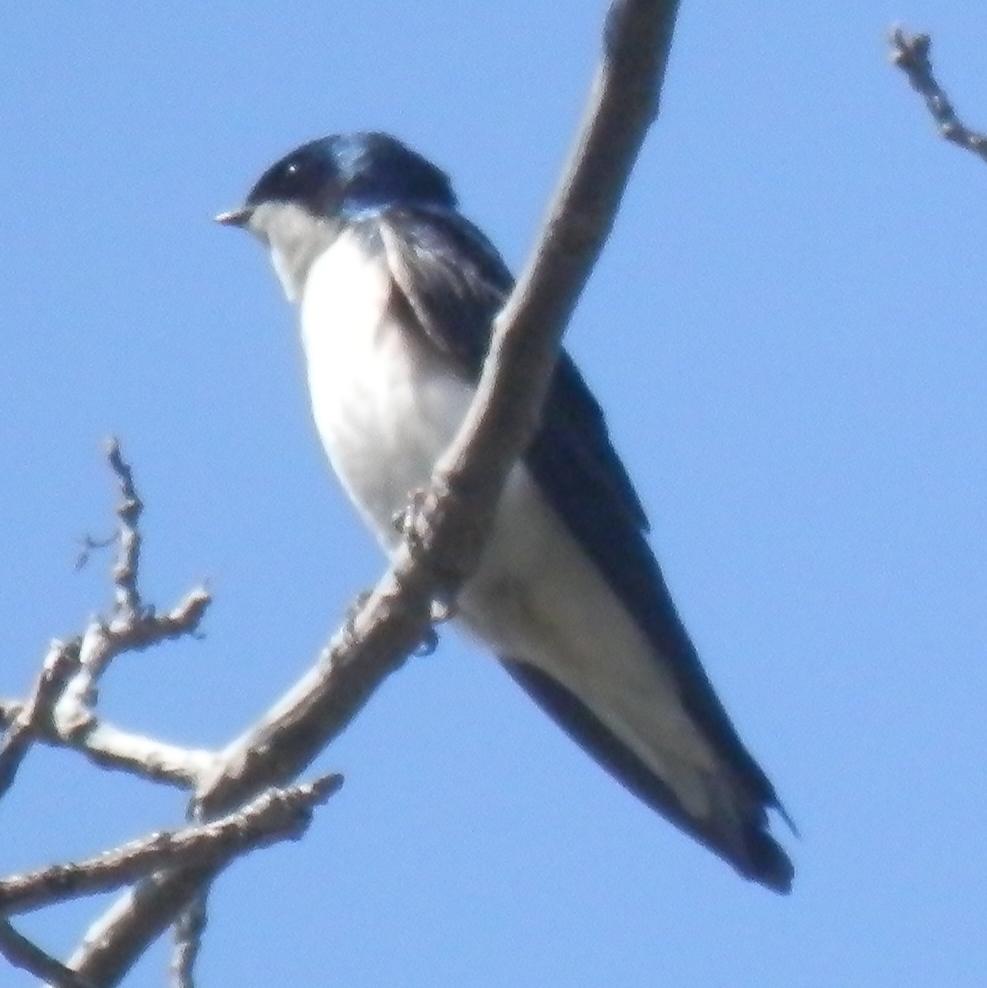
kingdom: Animalia
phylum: Chordata
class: Aves
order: Passeriformes
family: Hirundinidae
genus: Tachycineta
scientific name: Tachycineta bicolor
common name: Tree swallow
